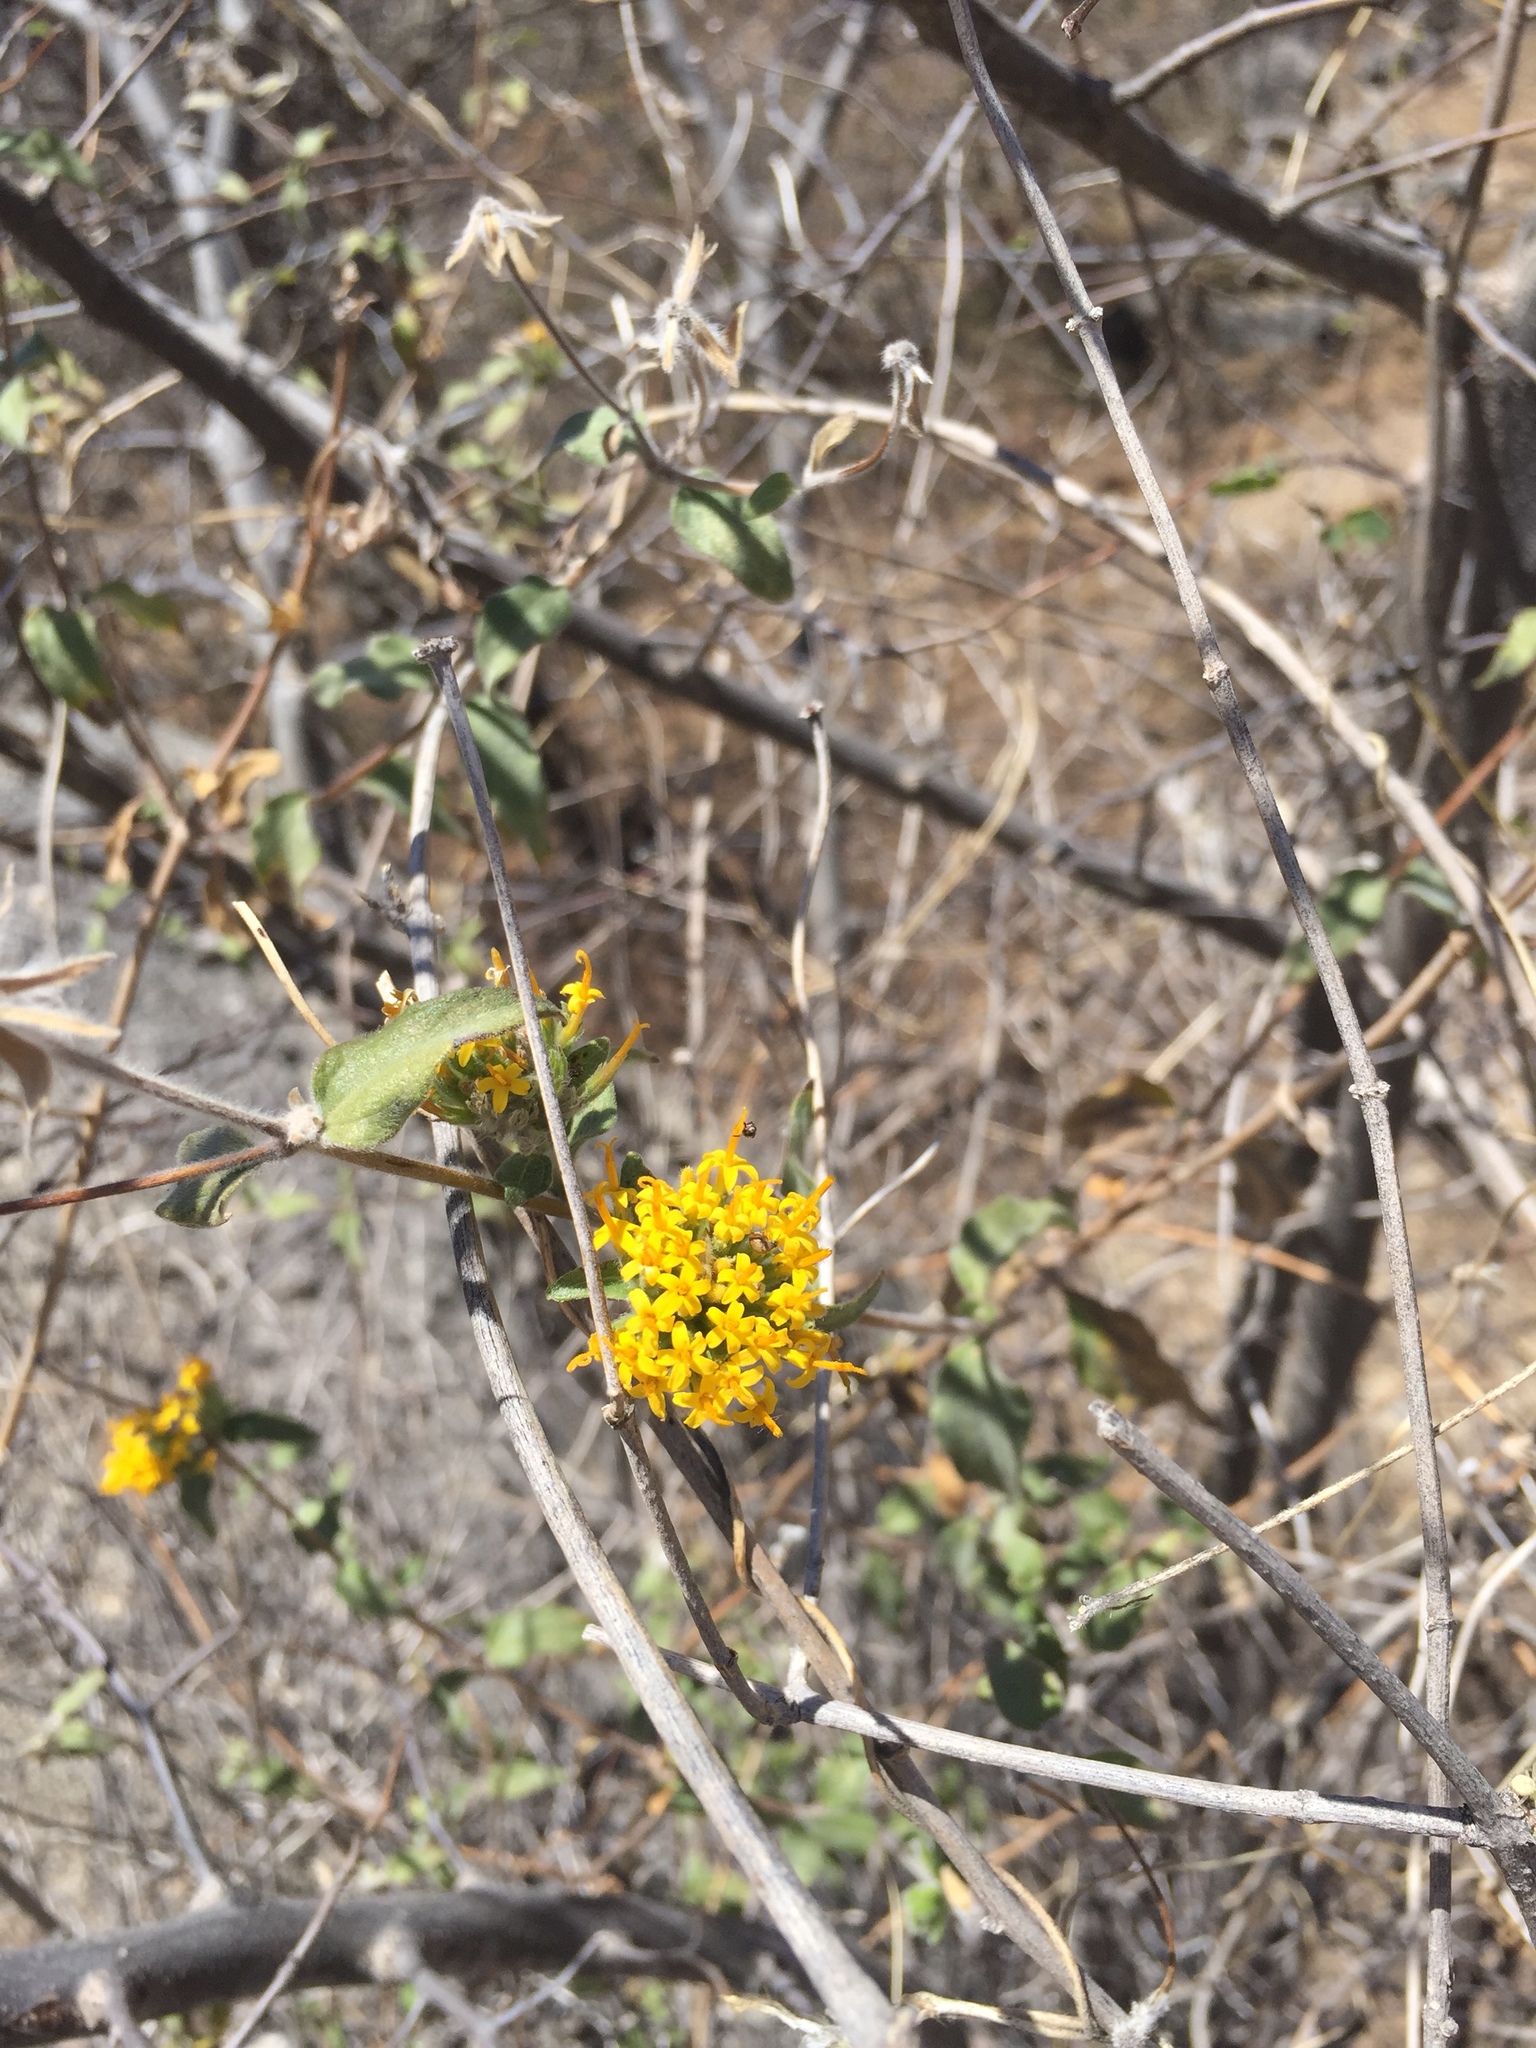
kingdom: Plantae
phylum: Tracheophyta
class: Magnoliopsida
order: Asterales
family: Asteraceae
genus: Lagascea
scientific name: Lagascea decipiens
